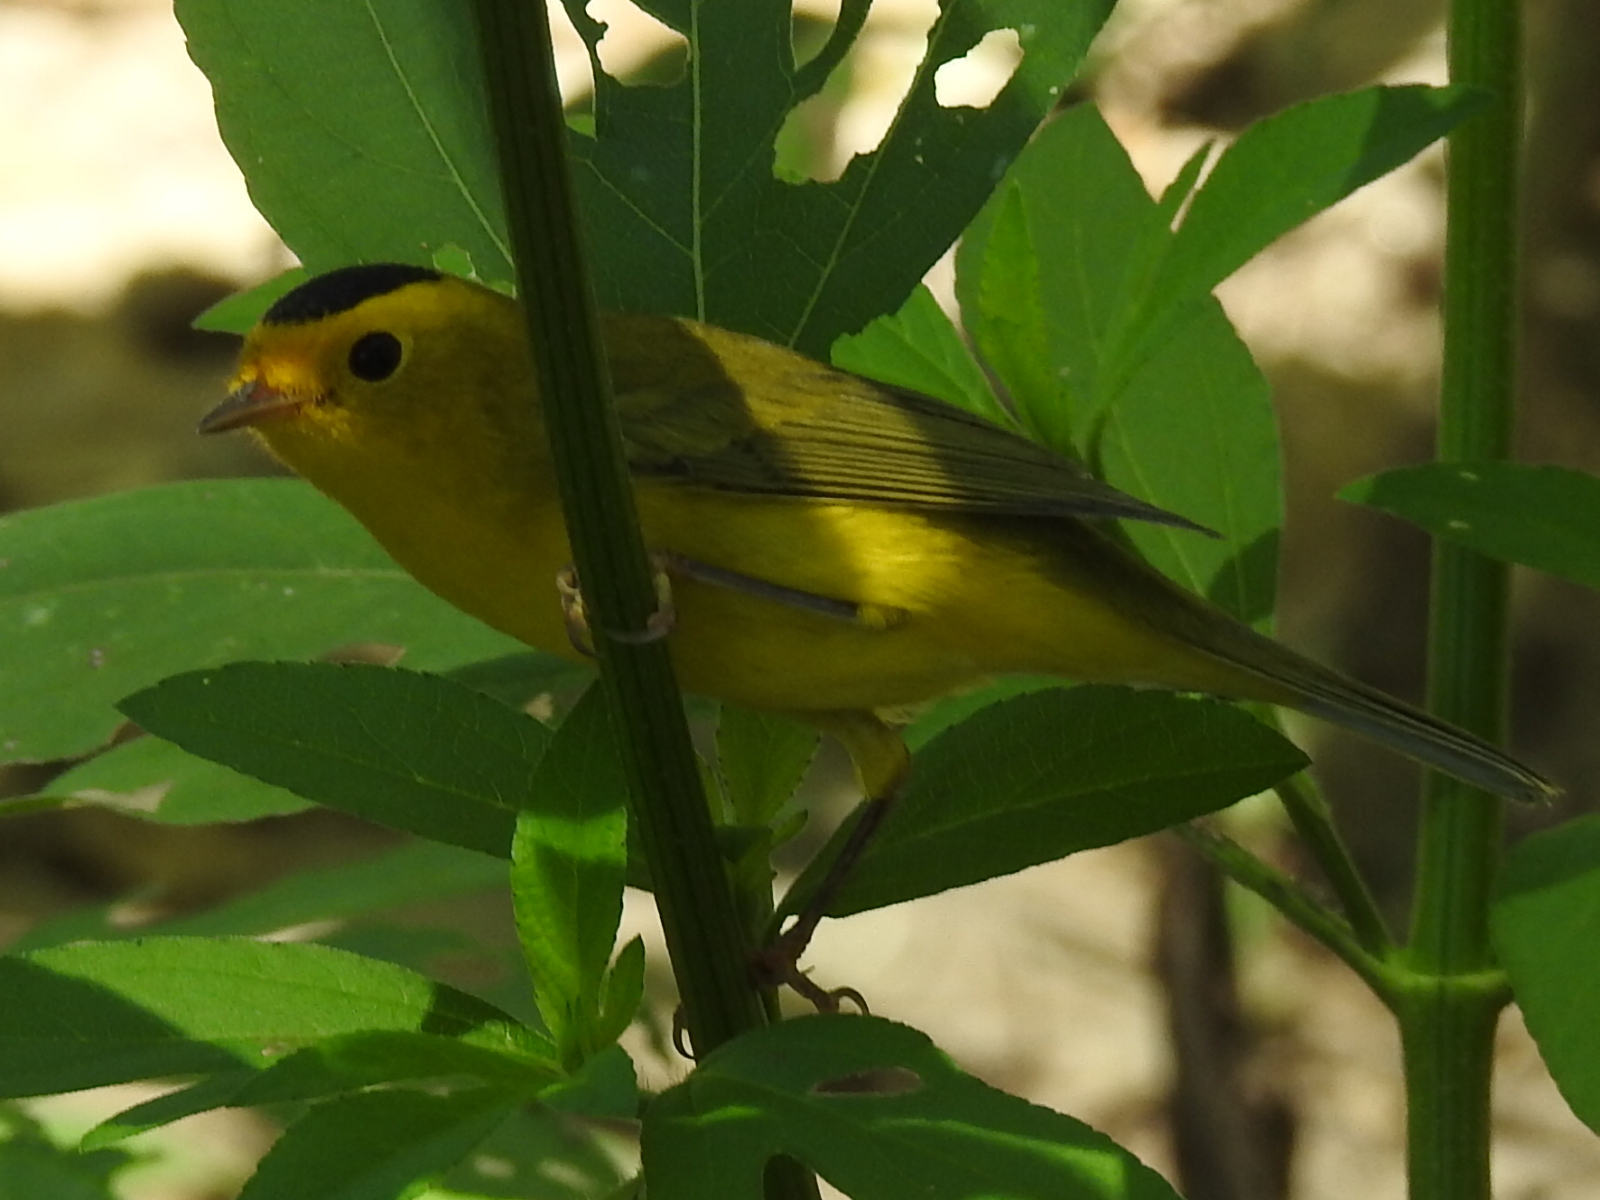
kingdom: Animalia
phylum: Chordata
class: Aves
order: Passeriformes
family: Parulidae
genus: Cardellina
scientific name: Cardellina pusilla
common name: Wilson's warbler
